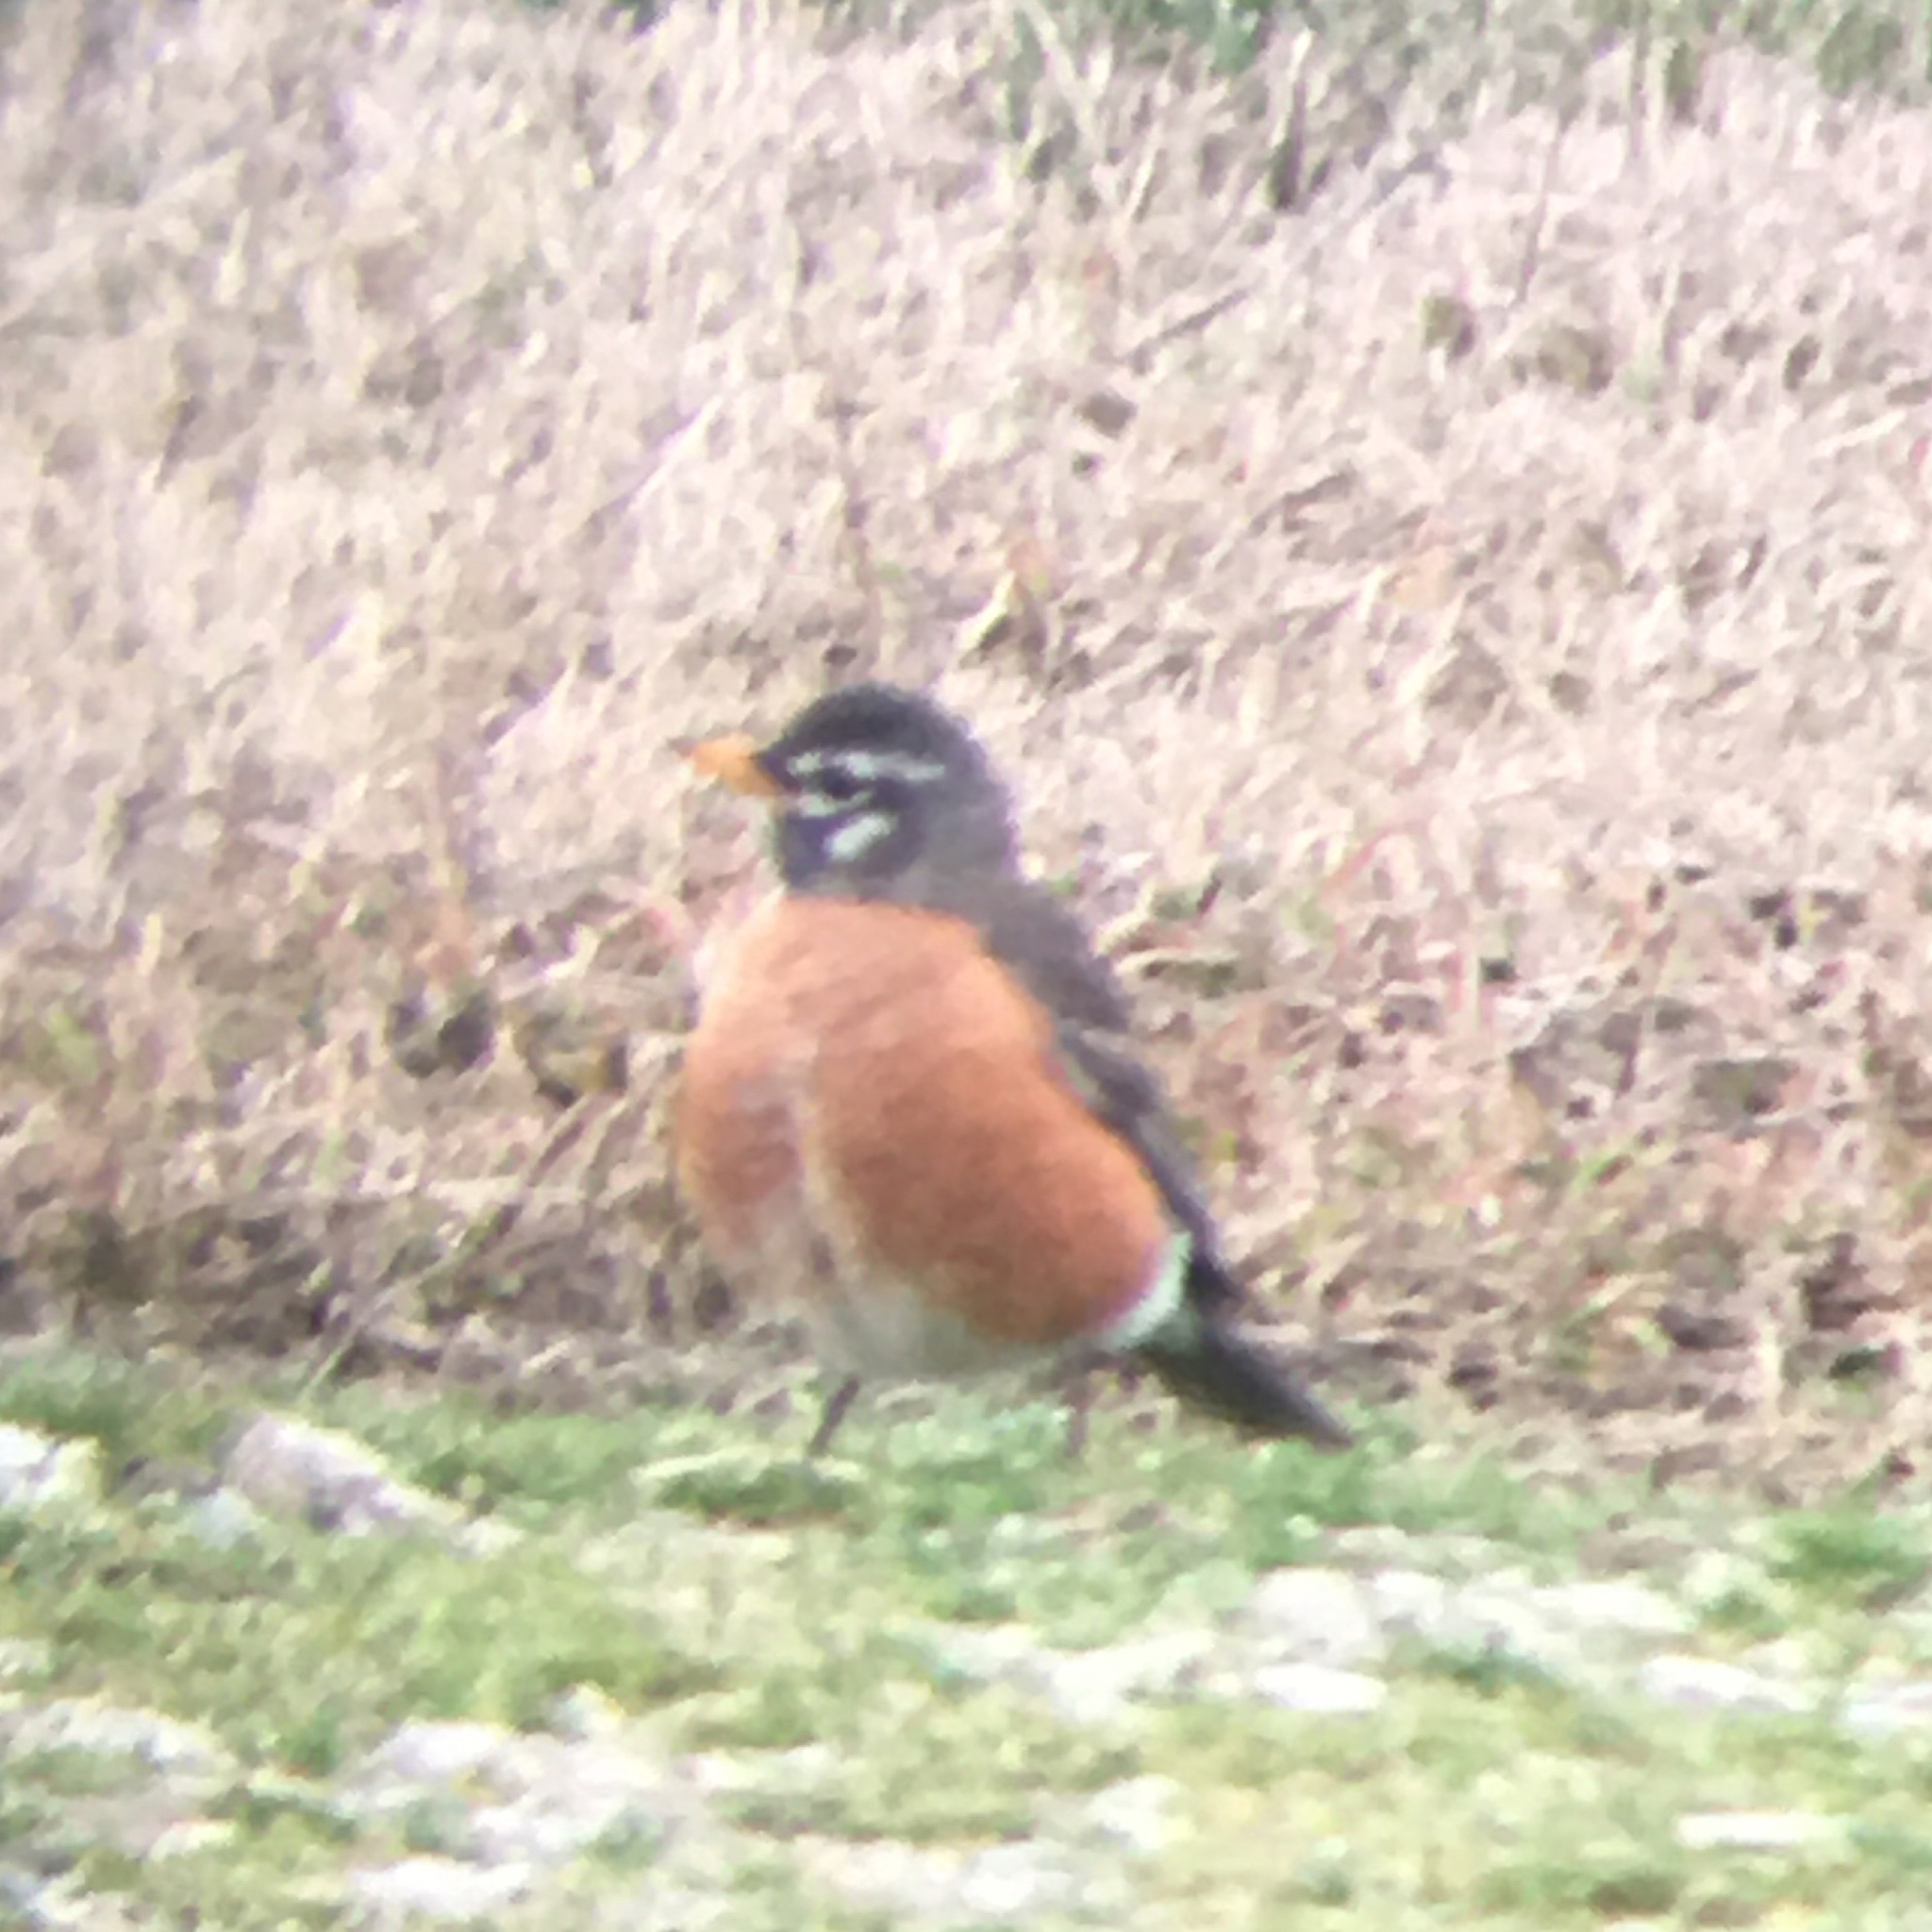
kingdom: Animalia
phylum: Chordata
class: Aves
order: Passeriformes
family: Turdidae
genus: Turdus
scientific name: Turdus migratorius
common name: American robin
